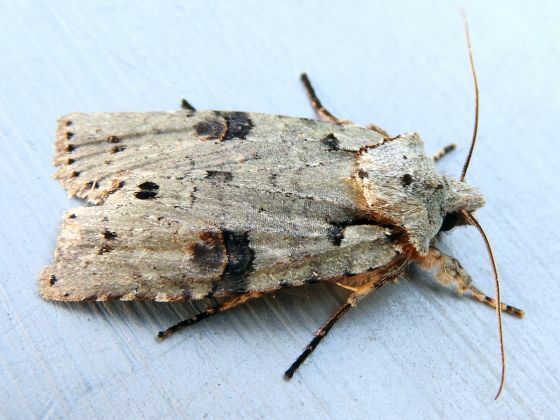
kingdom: Animalia
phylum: Arthropoda
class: Insecta
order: Lepidoptera
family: Noctuidae
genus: Lithophane
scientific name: Lithophane querquera
